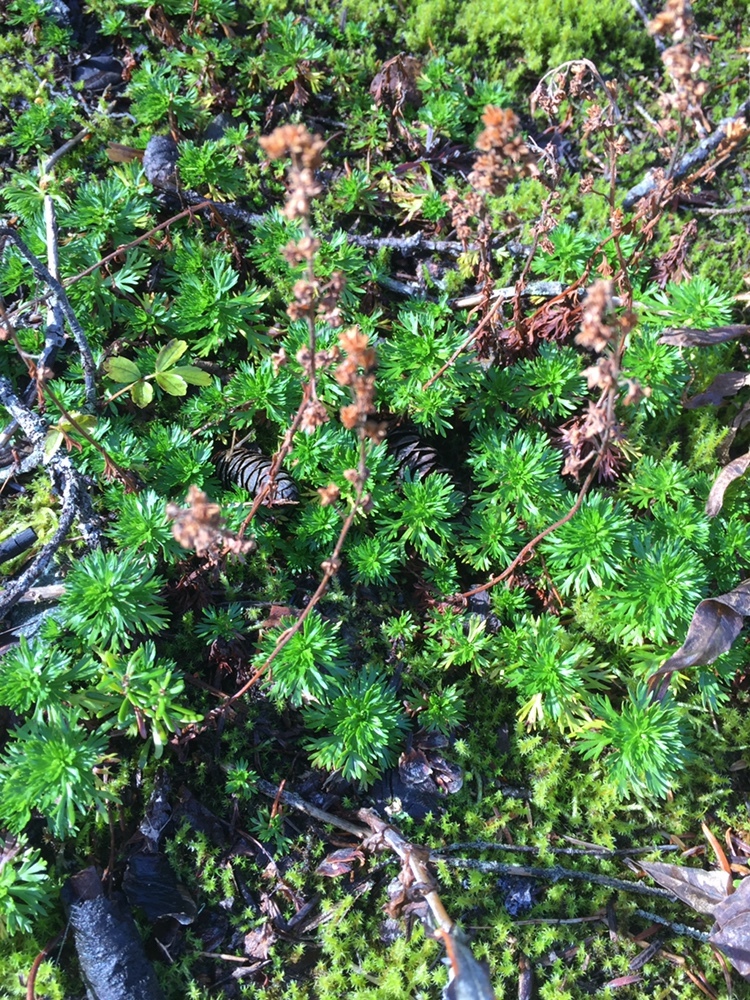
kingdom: Plantae
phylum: Tracheophyta
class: Magnoliopsida
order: Rosales
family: Rosaceae
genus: Luetkea
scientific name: Luetkea pectinata
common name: Partridgefoot
